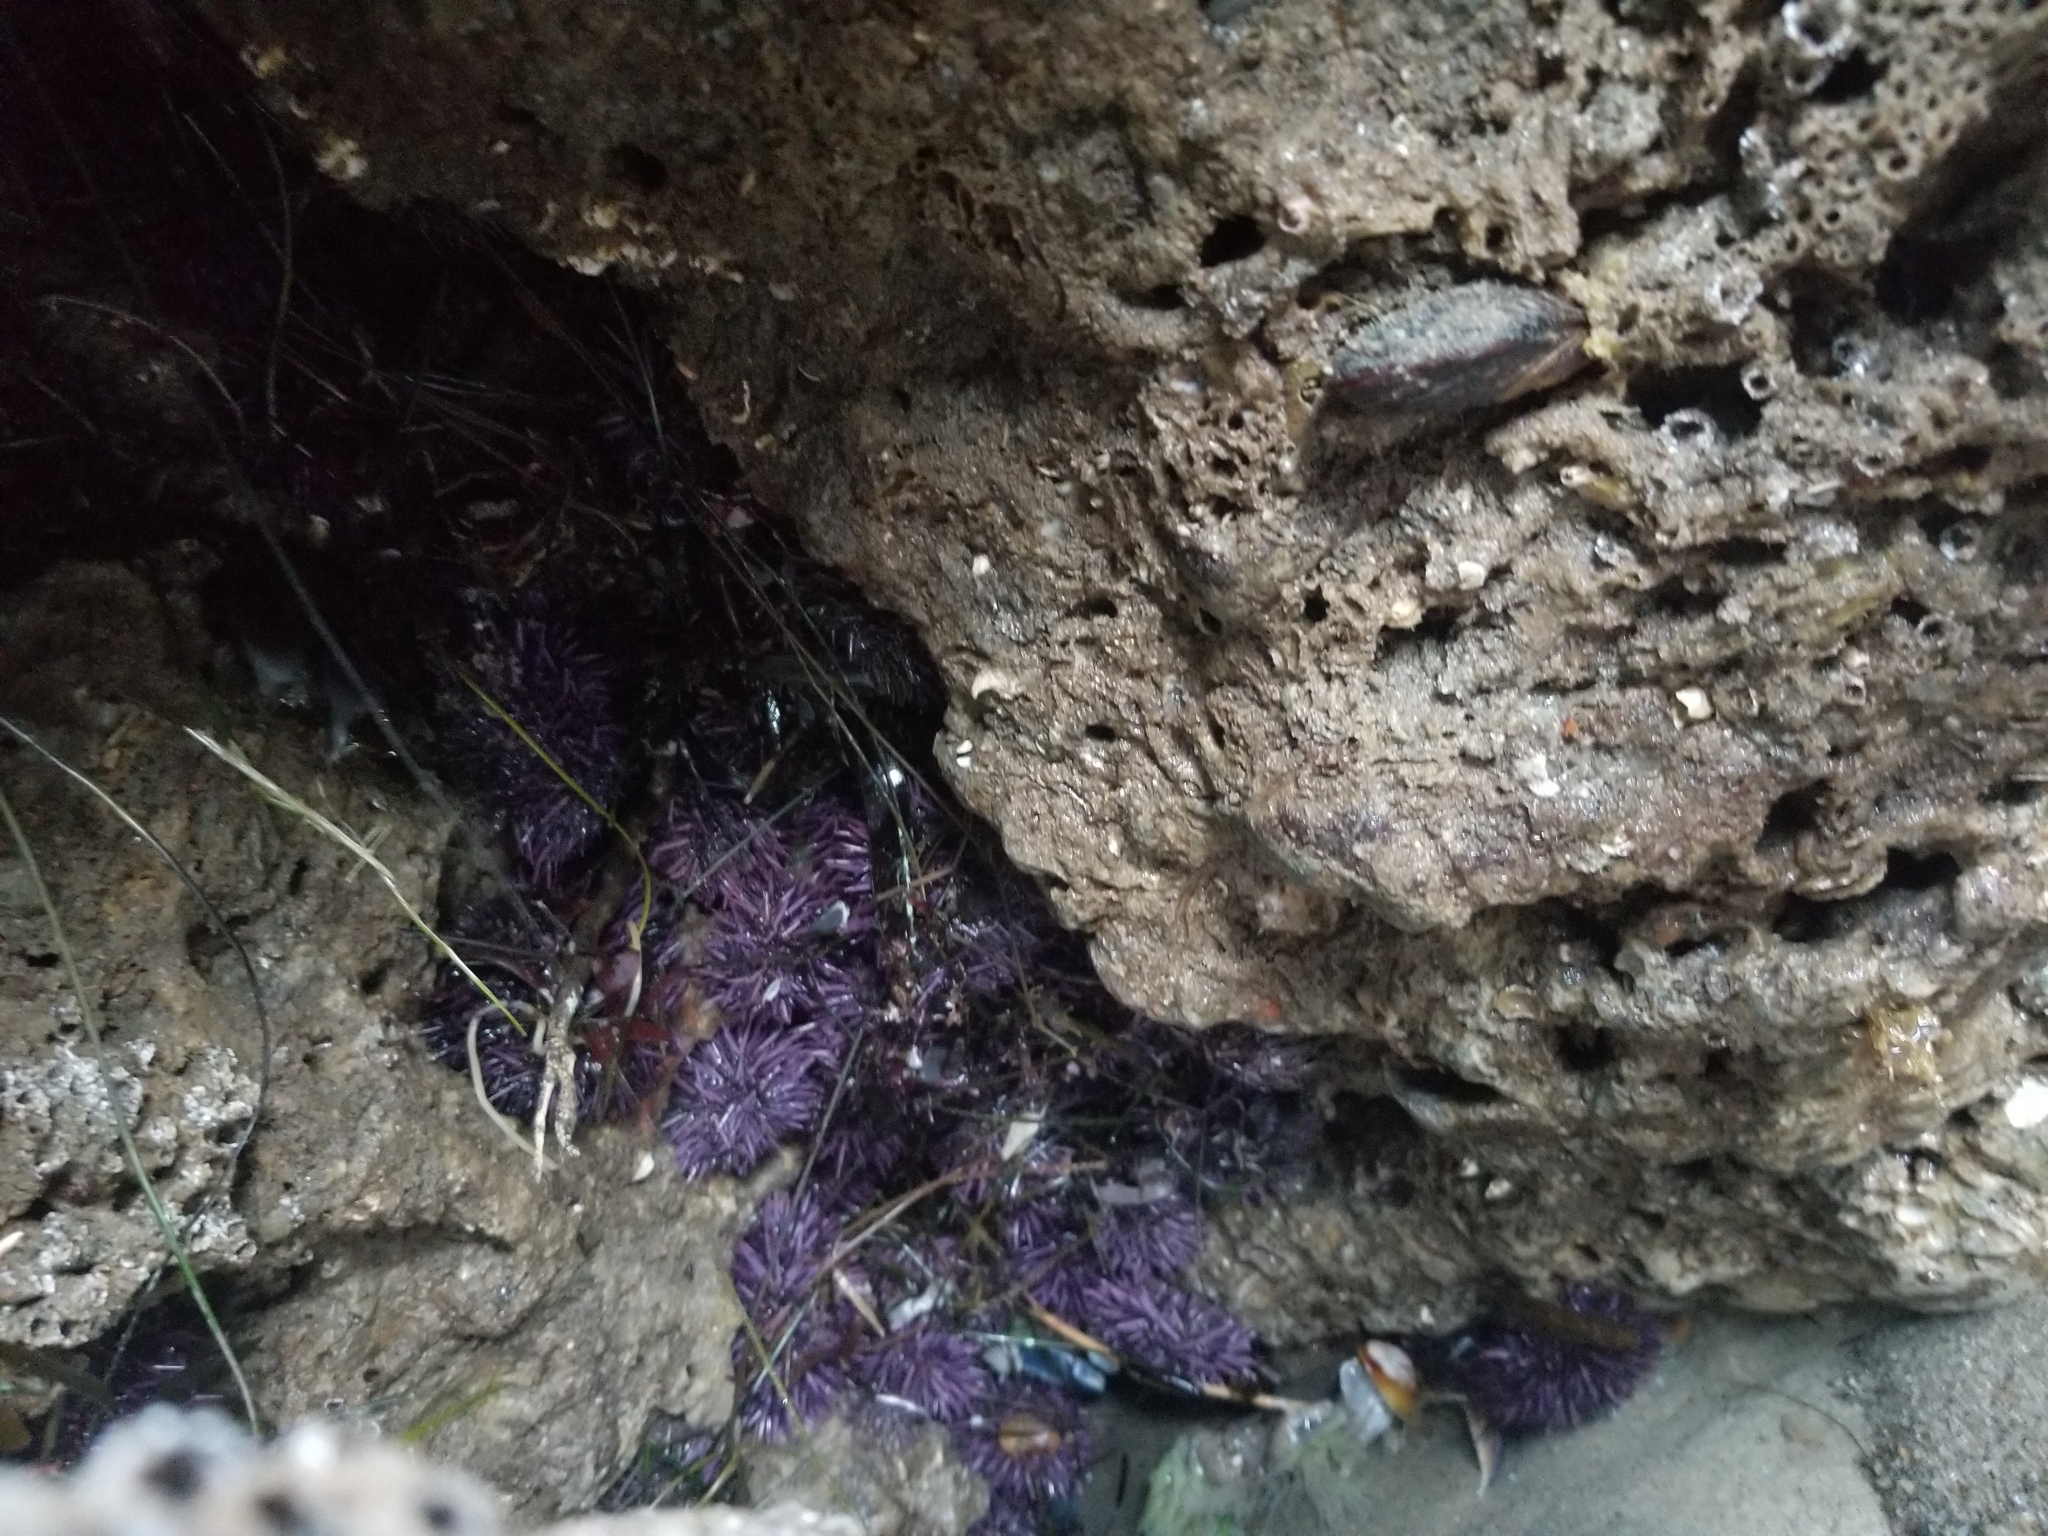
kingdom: Animalia
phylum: Echinodermata
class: Echinoidea
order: Camarodonta
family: Strongylocentrotidae
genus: Strongylocentrotus
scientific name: Strongylocentrotus purpuratus
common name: Purple sea urchin
